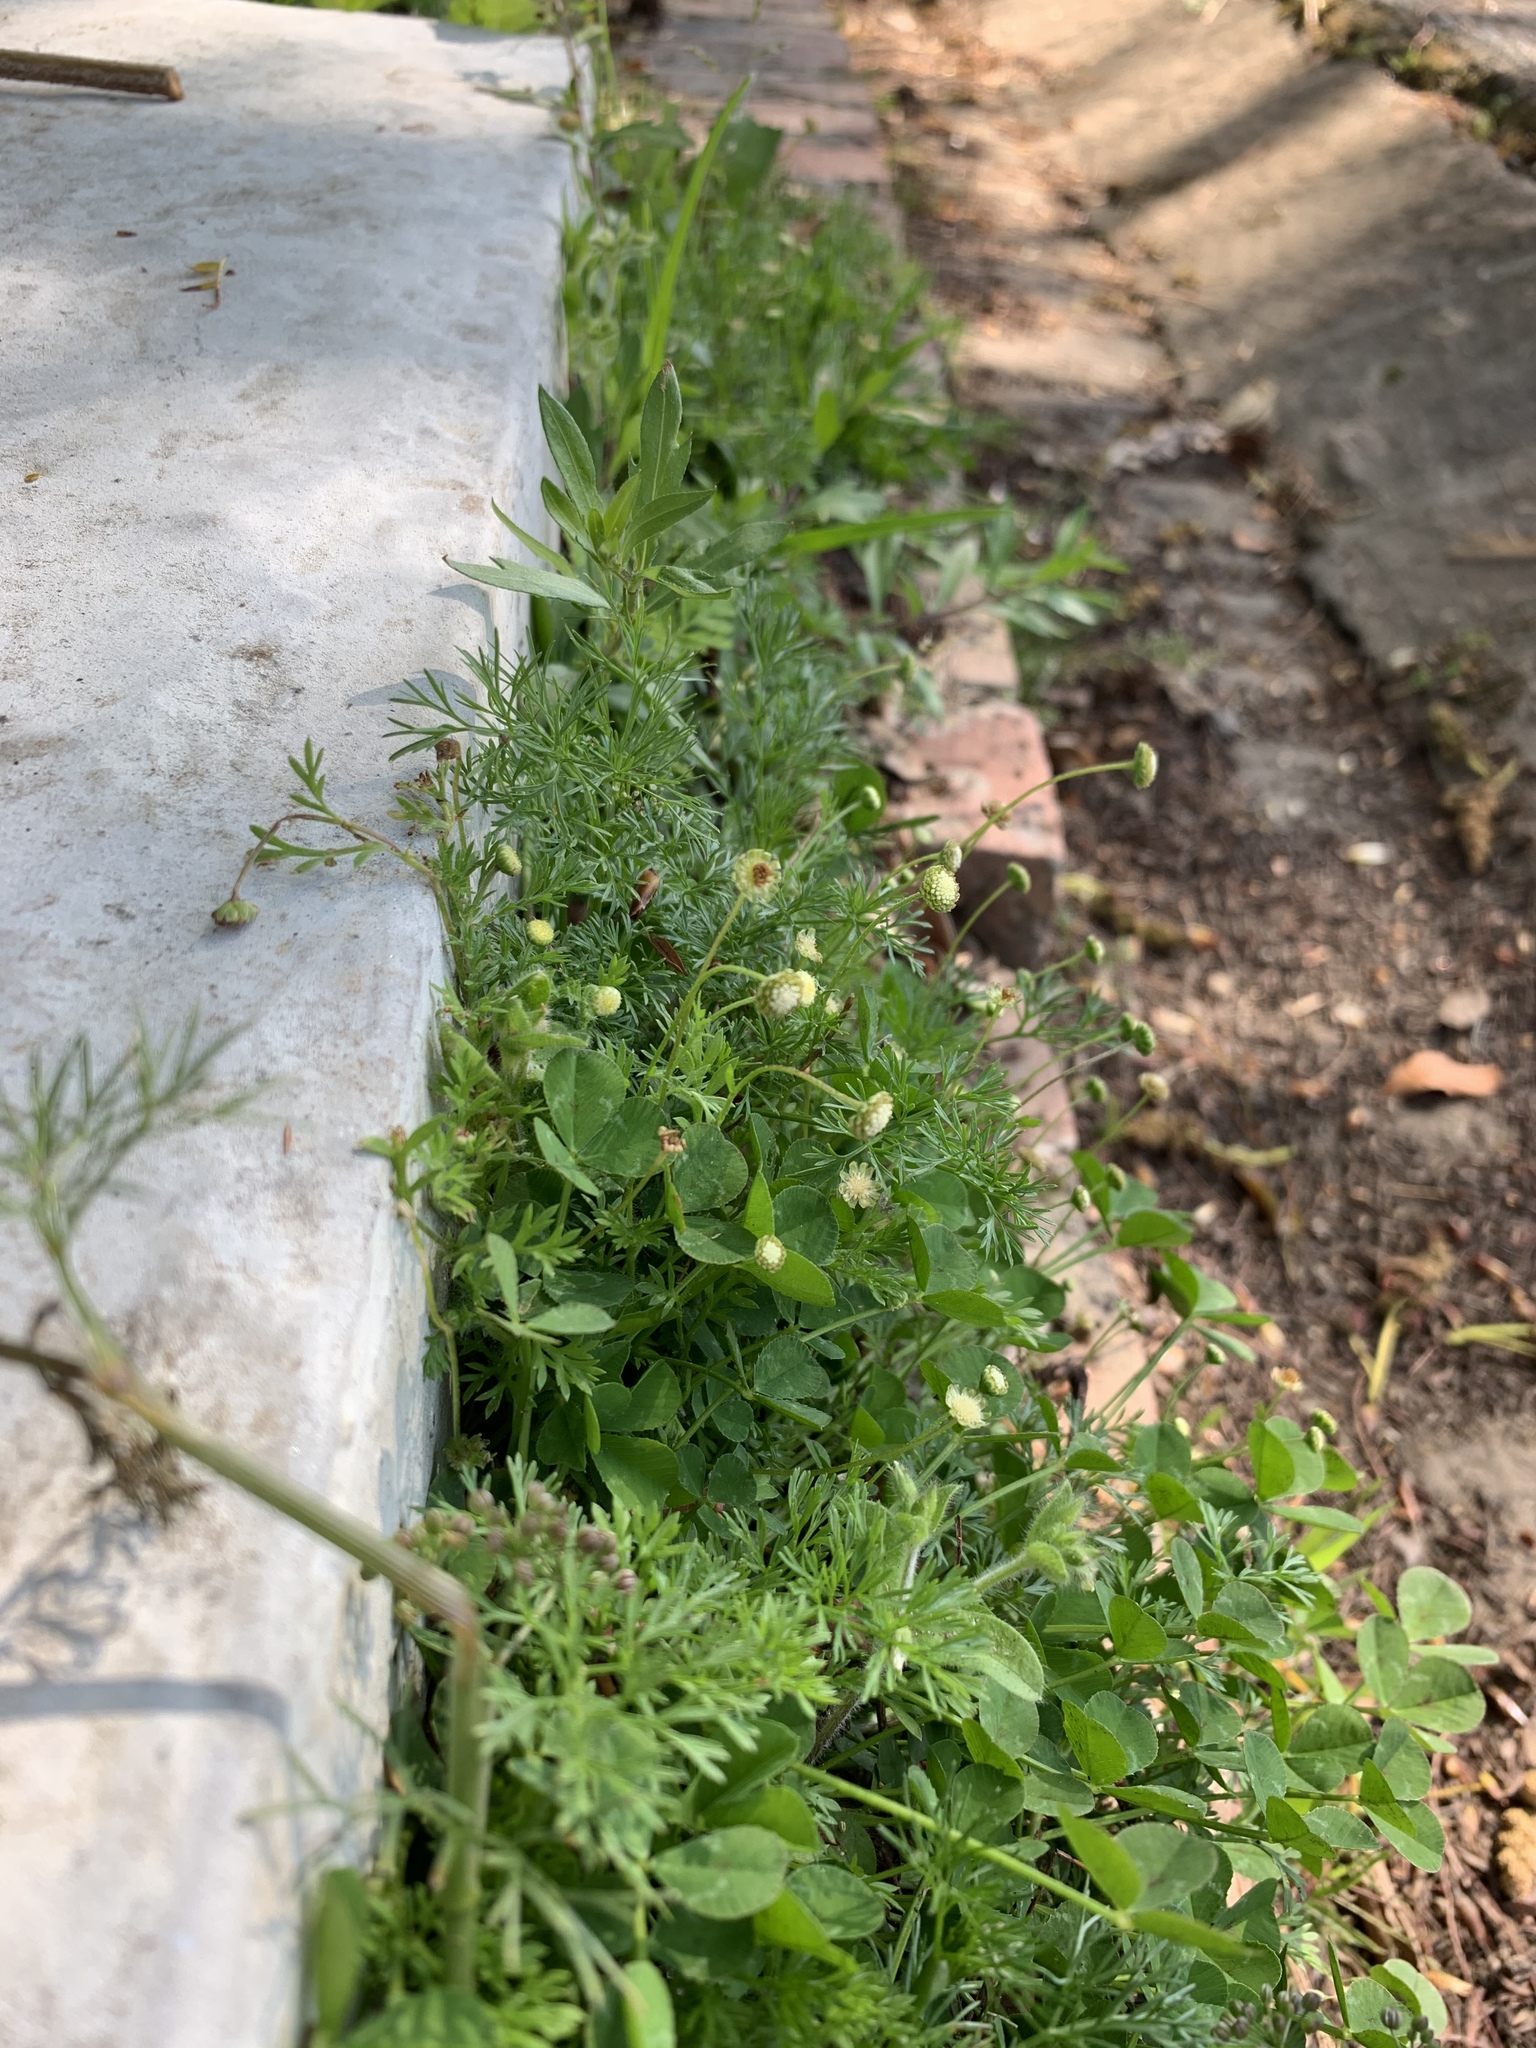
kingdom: Plantae
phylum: Tracheophyta
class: Magnoliopsida
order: Asterales
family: Asteraceae
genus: Cotula
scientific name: Cotula australis
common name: Australian waterbuttons
